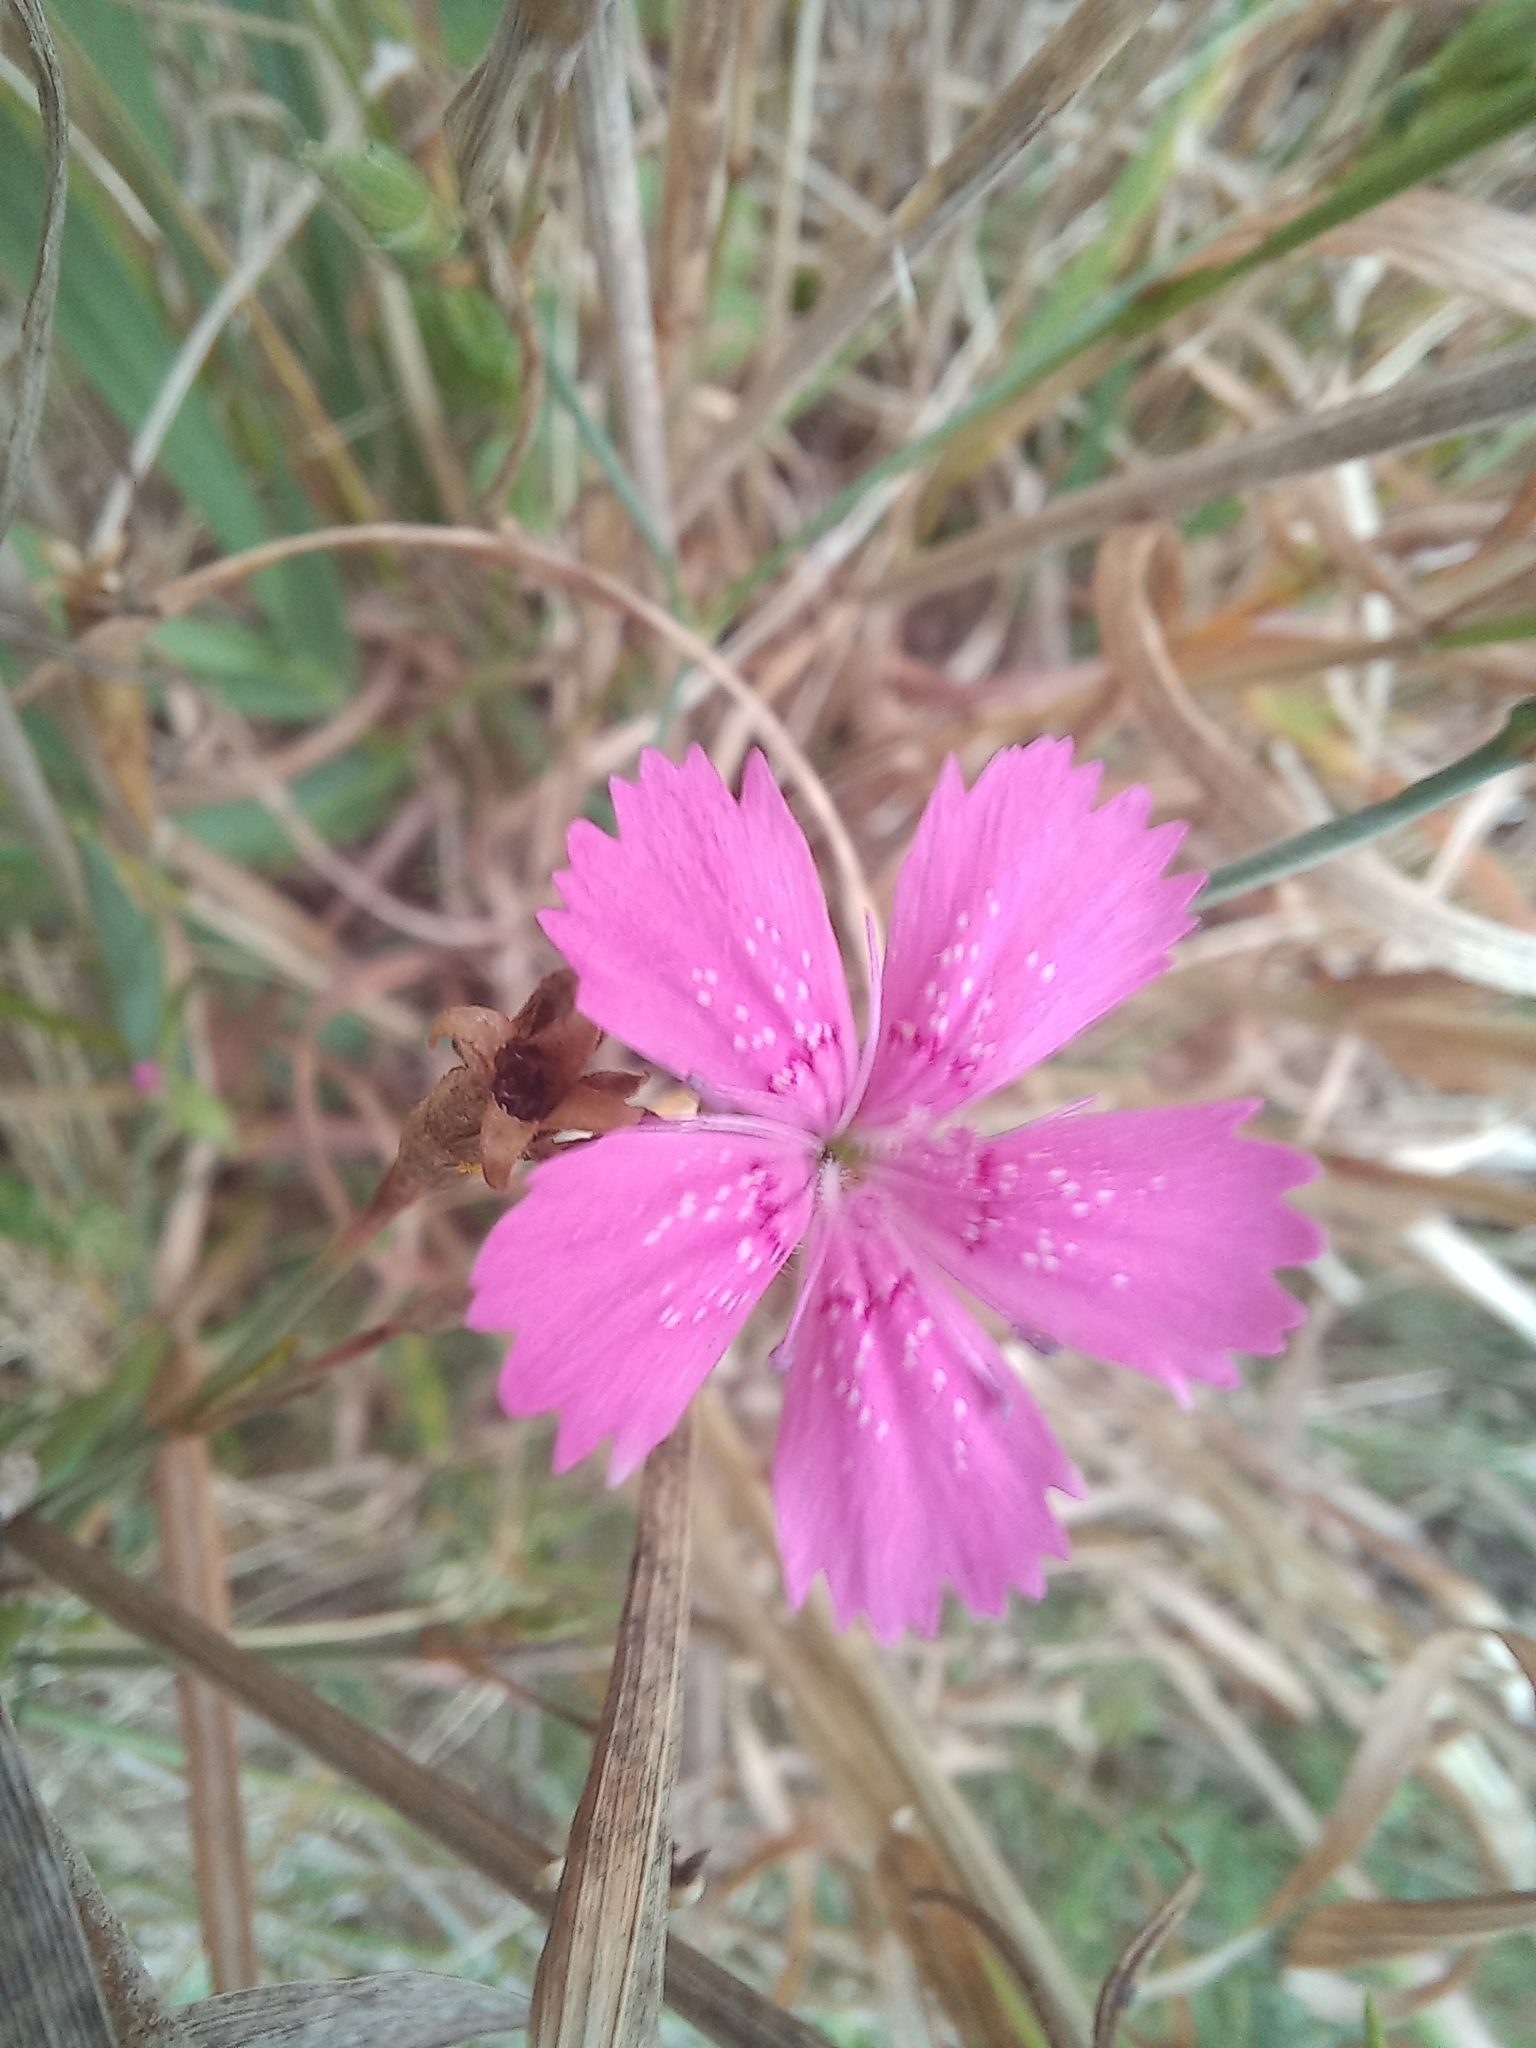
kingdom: Plantae
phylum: Tracheophyta
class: Magnoliopsida
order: Caryophyllales
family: Caryophyllaceae
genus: Dianthus
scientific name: Dianthus deltoides
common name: Maiden pink
